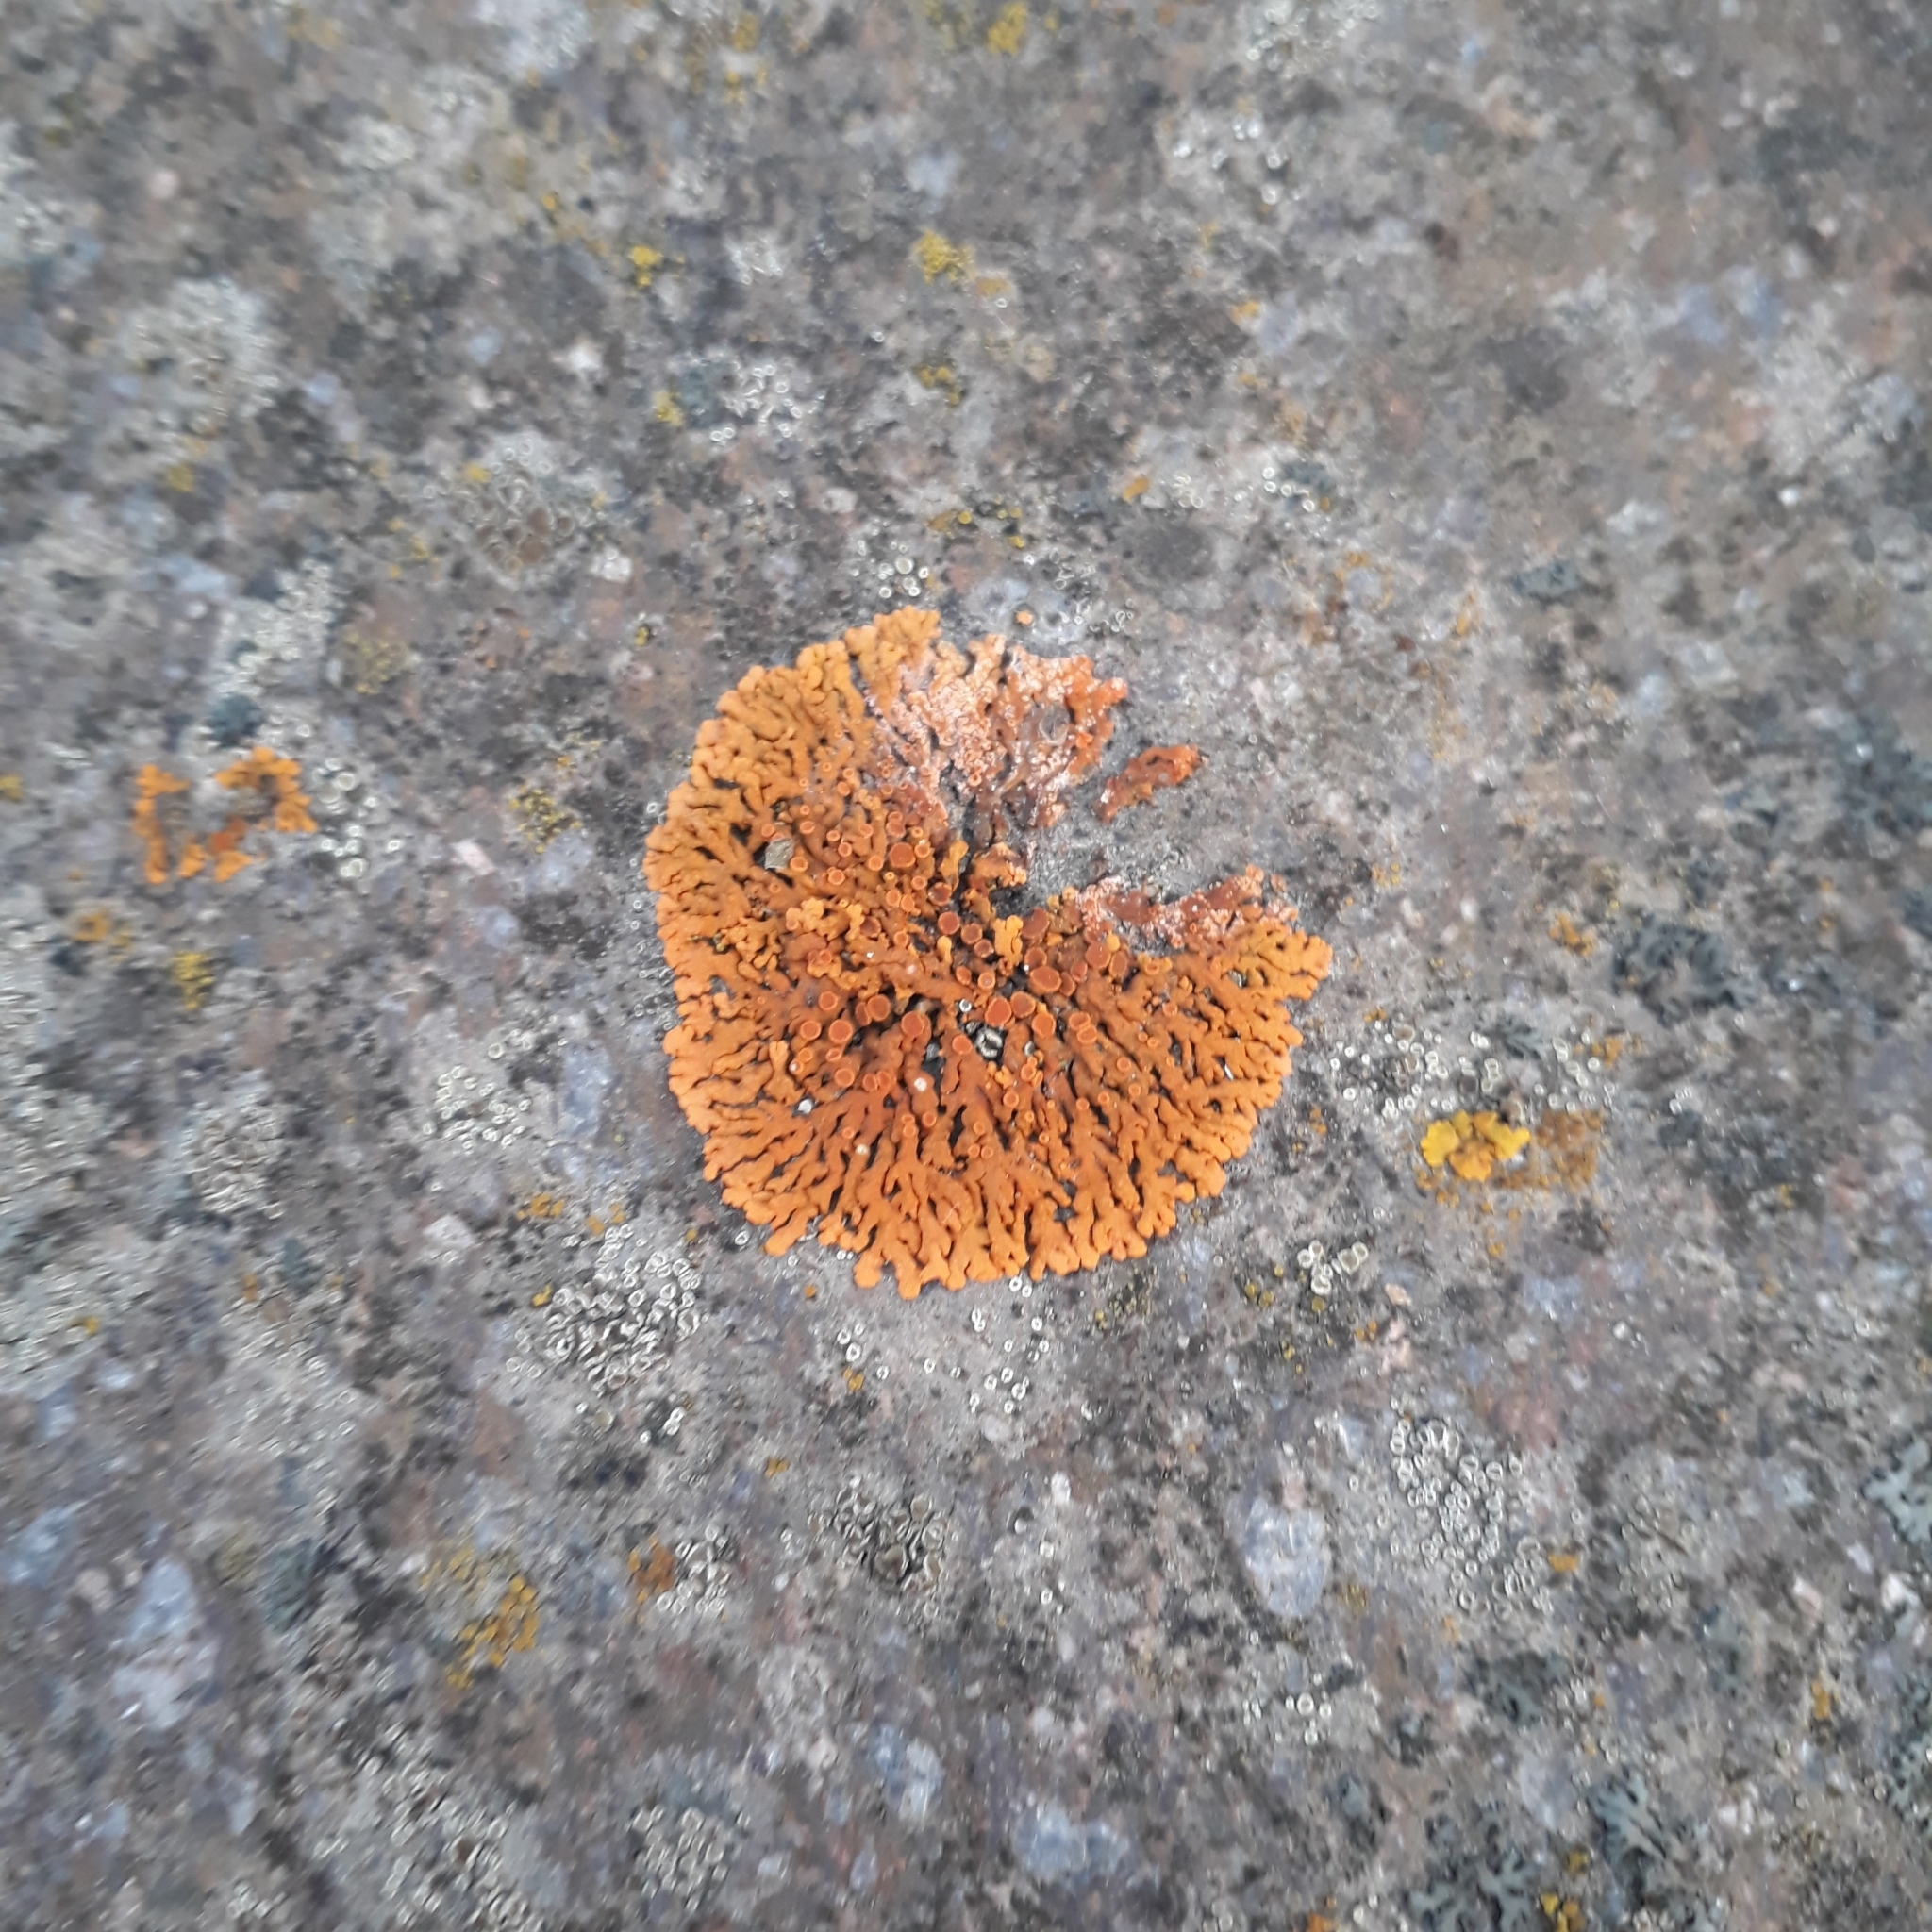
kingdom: Fungi
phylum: Ascomycota
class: Lecanoromycetes
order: Teloschistales
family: Teloschistaceae
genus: Xanthoria
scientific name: Xanthoria elegans
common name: Elegant sunburst lichen
